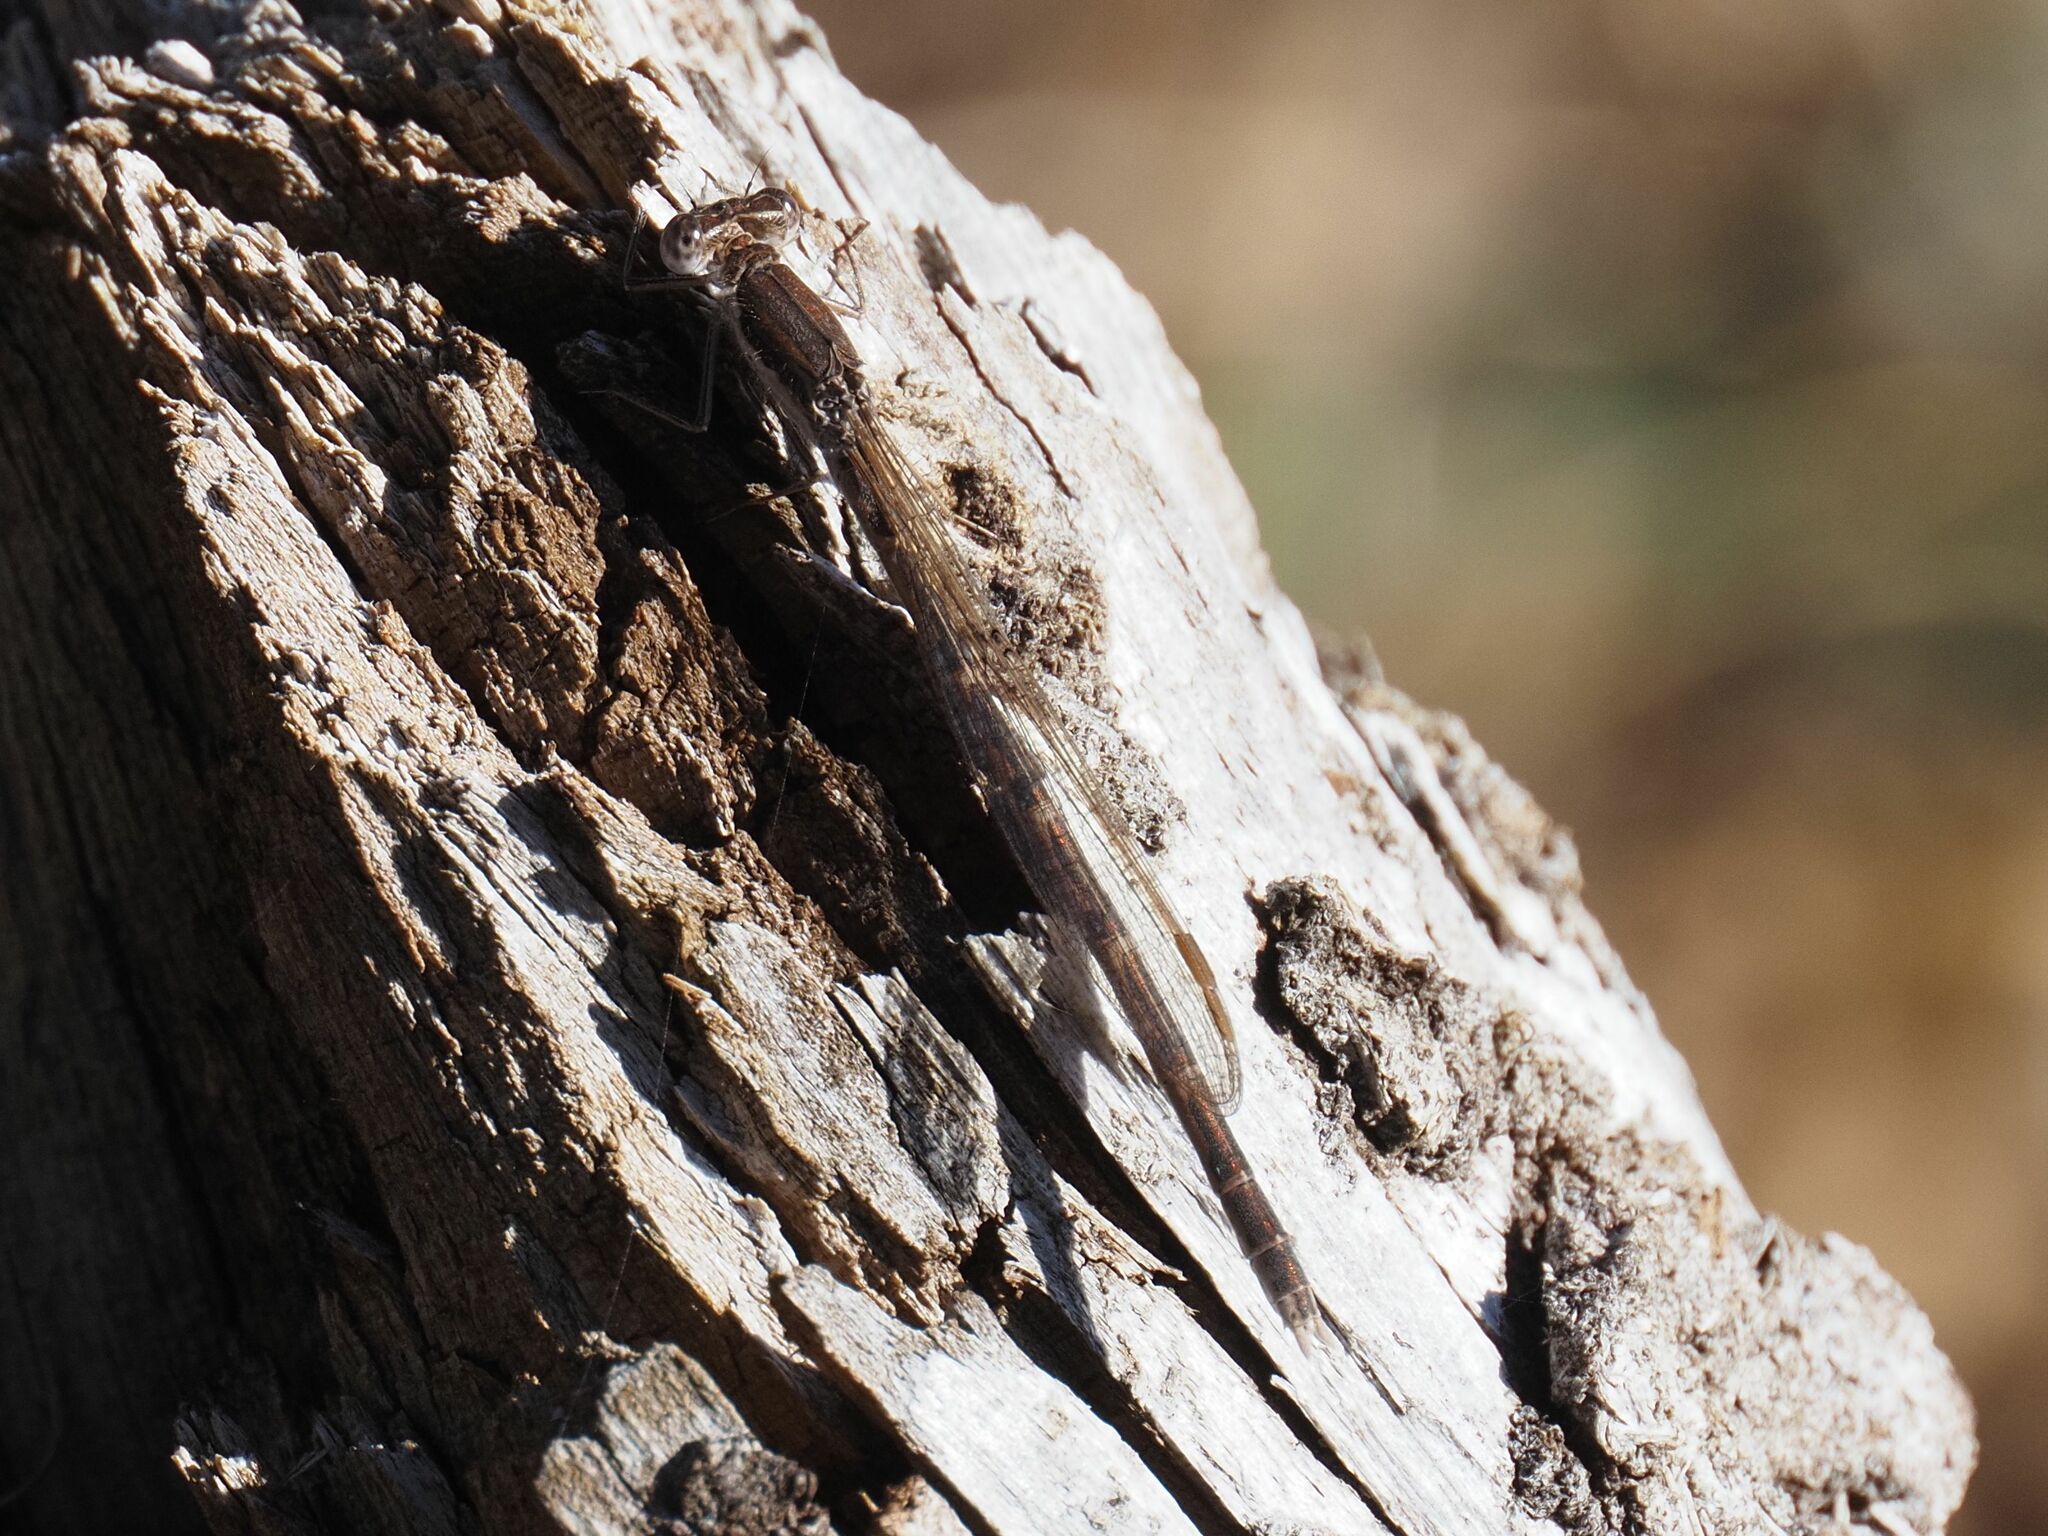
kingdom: Animalia
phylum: Arthropoda
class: Insecta
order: Odonata
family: Lestidae
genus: Sympecma
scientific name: Sympecma fusca
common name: Common winter damsel
